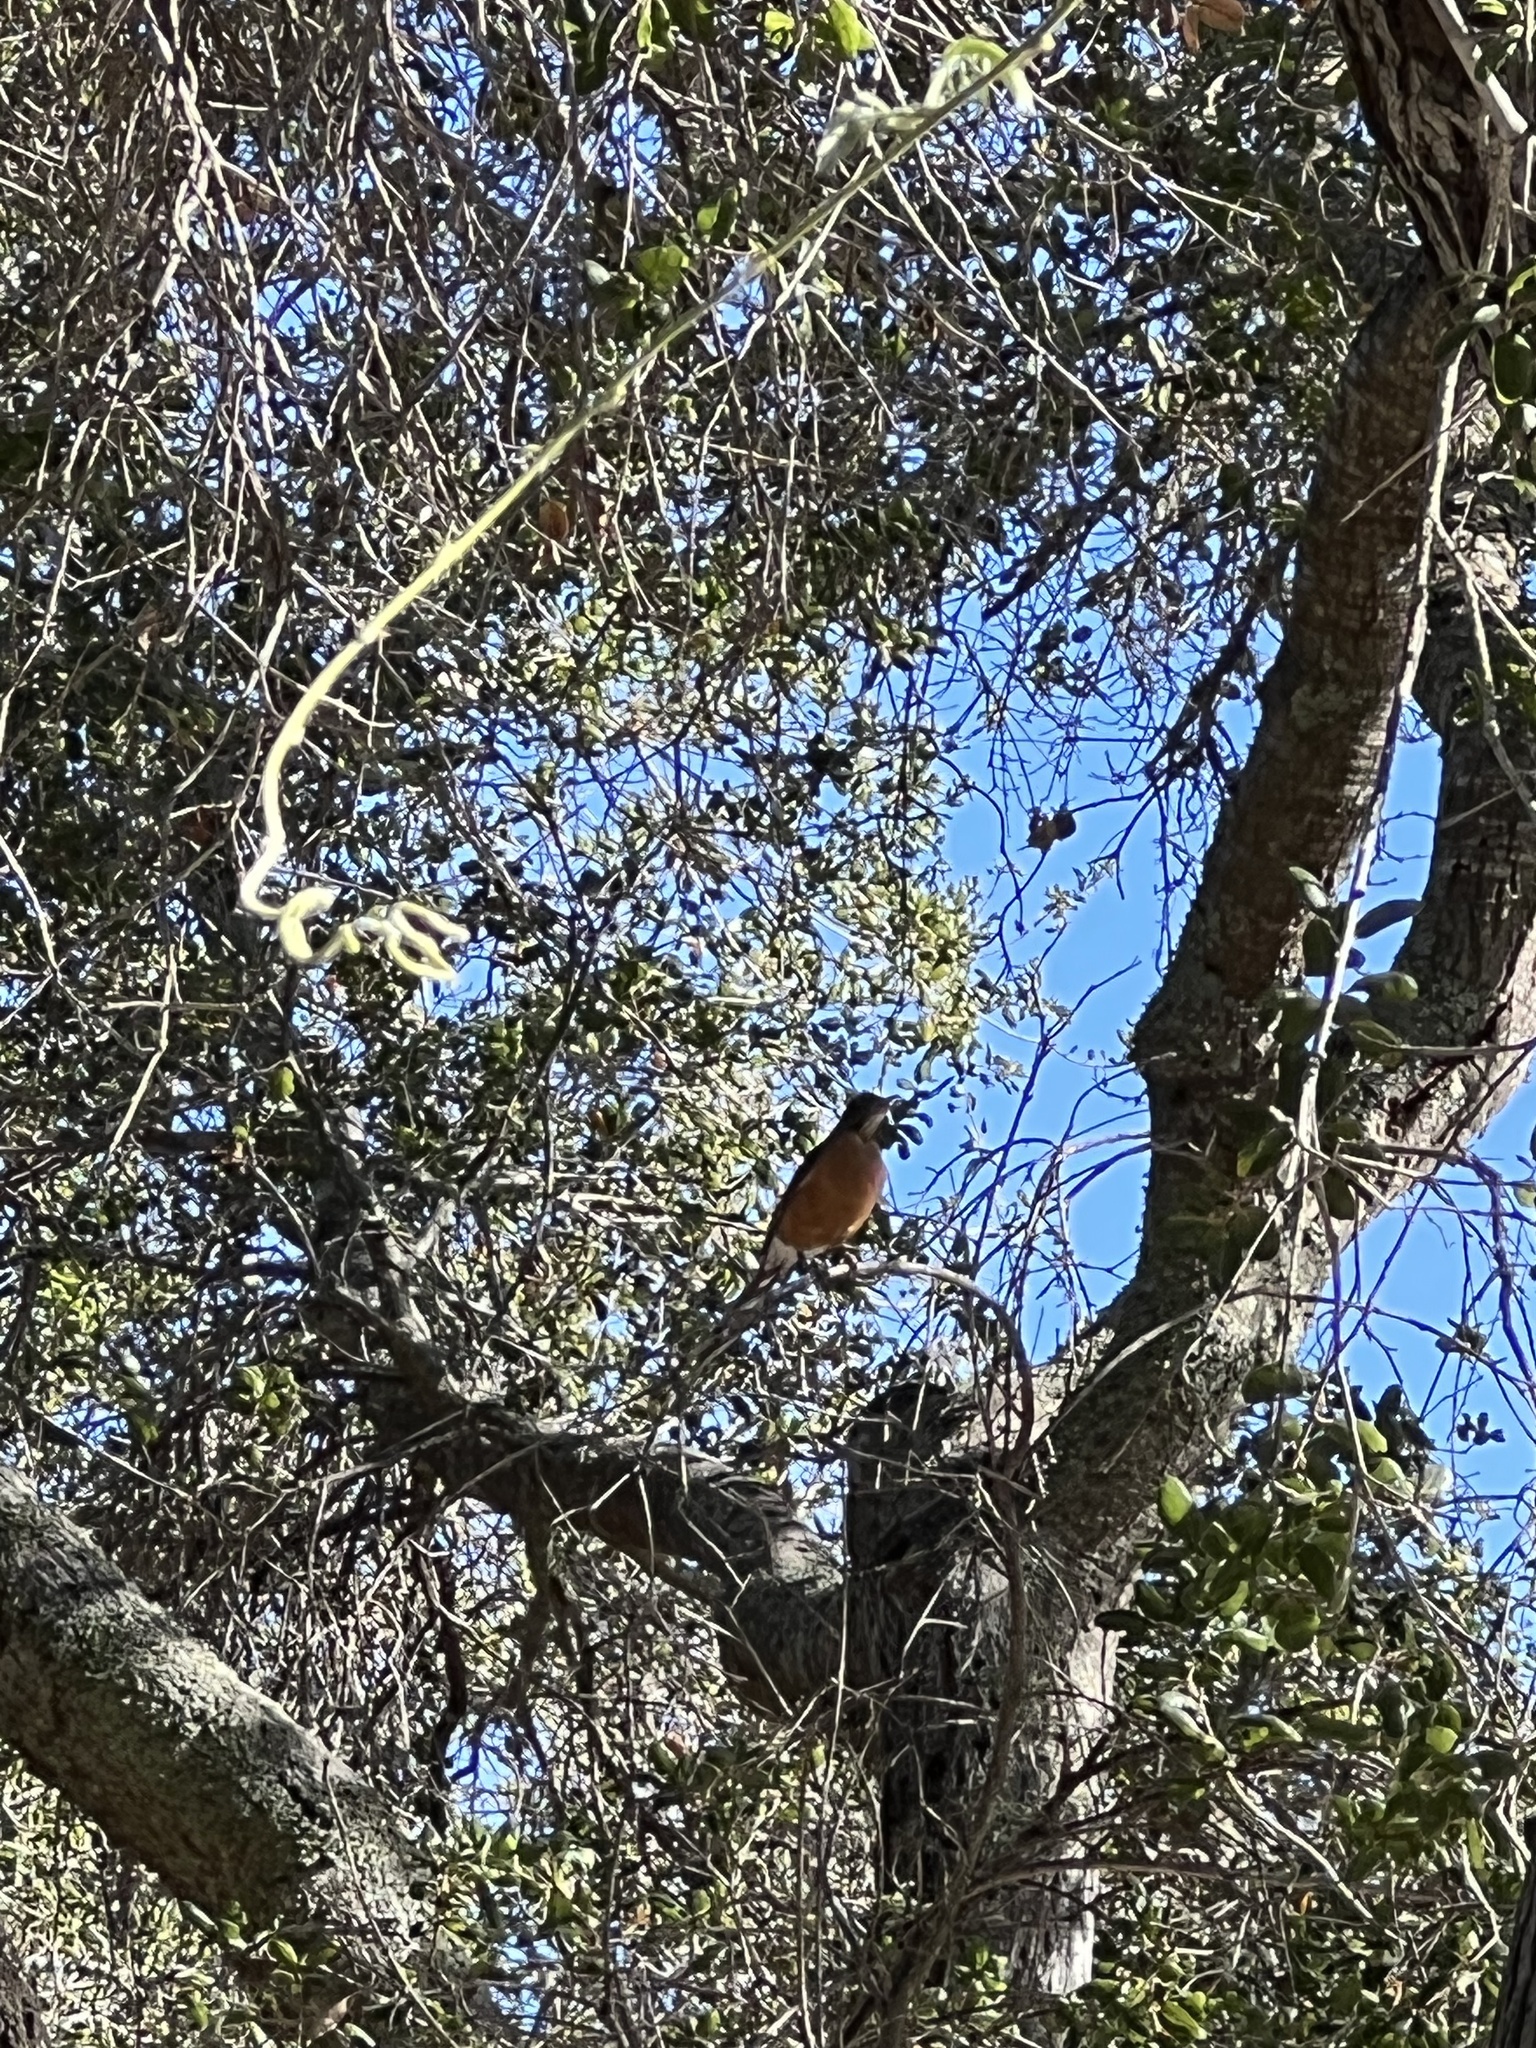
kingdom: Animalia
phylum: Chordata
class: Aves
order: Passeriformes
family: Turdidae
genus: Turdus
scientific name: Turdus migratorius
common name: American robin
